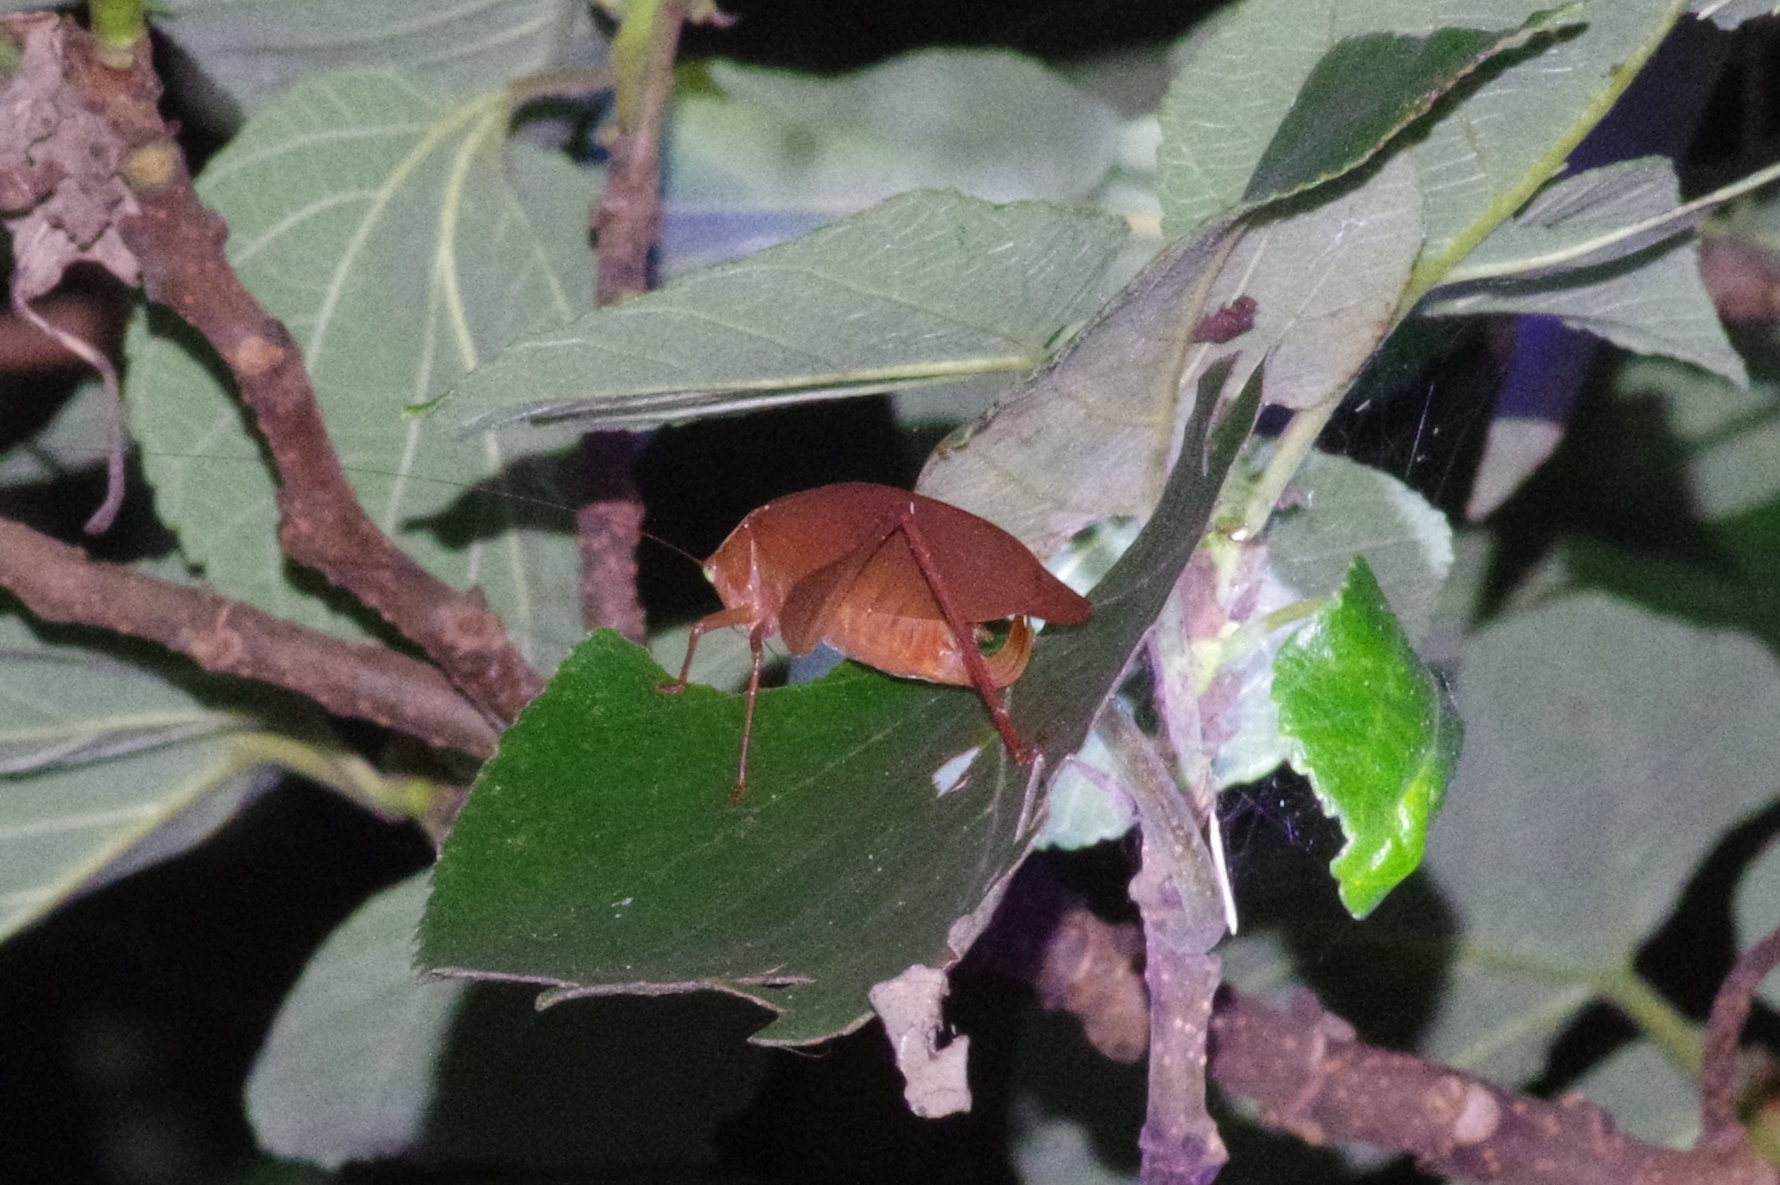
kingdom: Animalia
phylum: Arthropoda
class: Insecta
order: Orthoptera
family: Tettigoniidae
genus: Isopsera
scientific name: Isopsera denticulata
